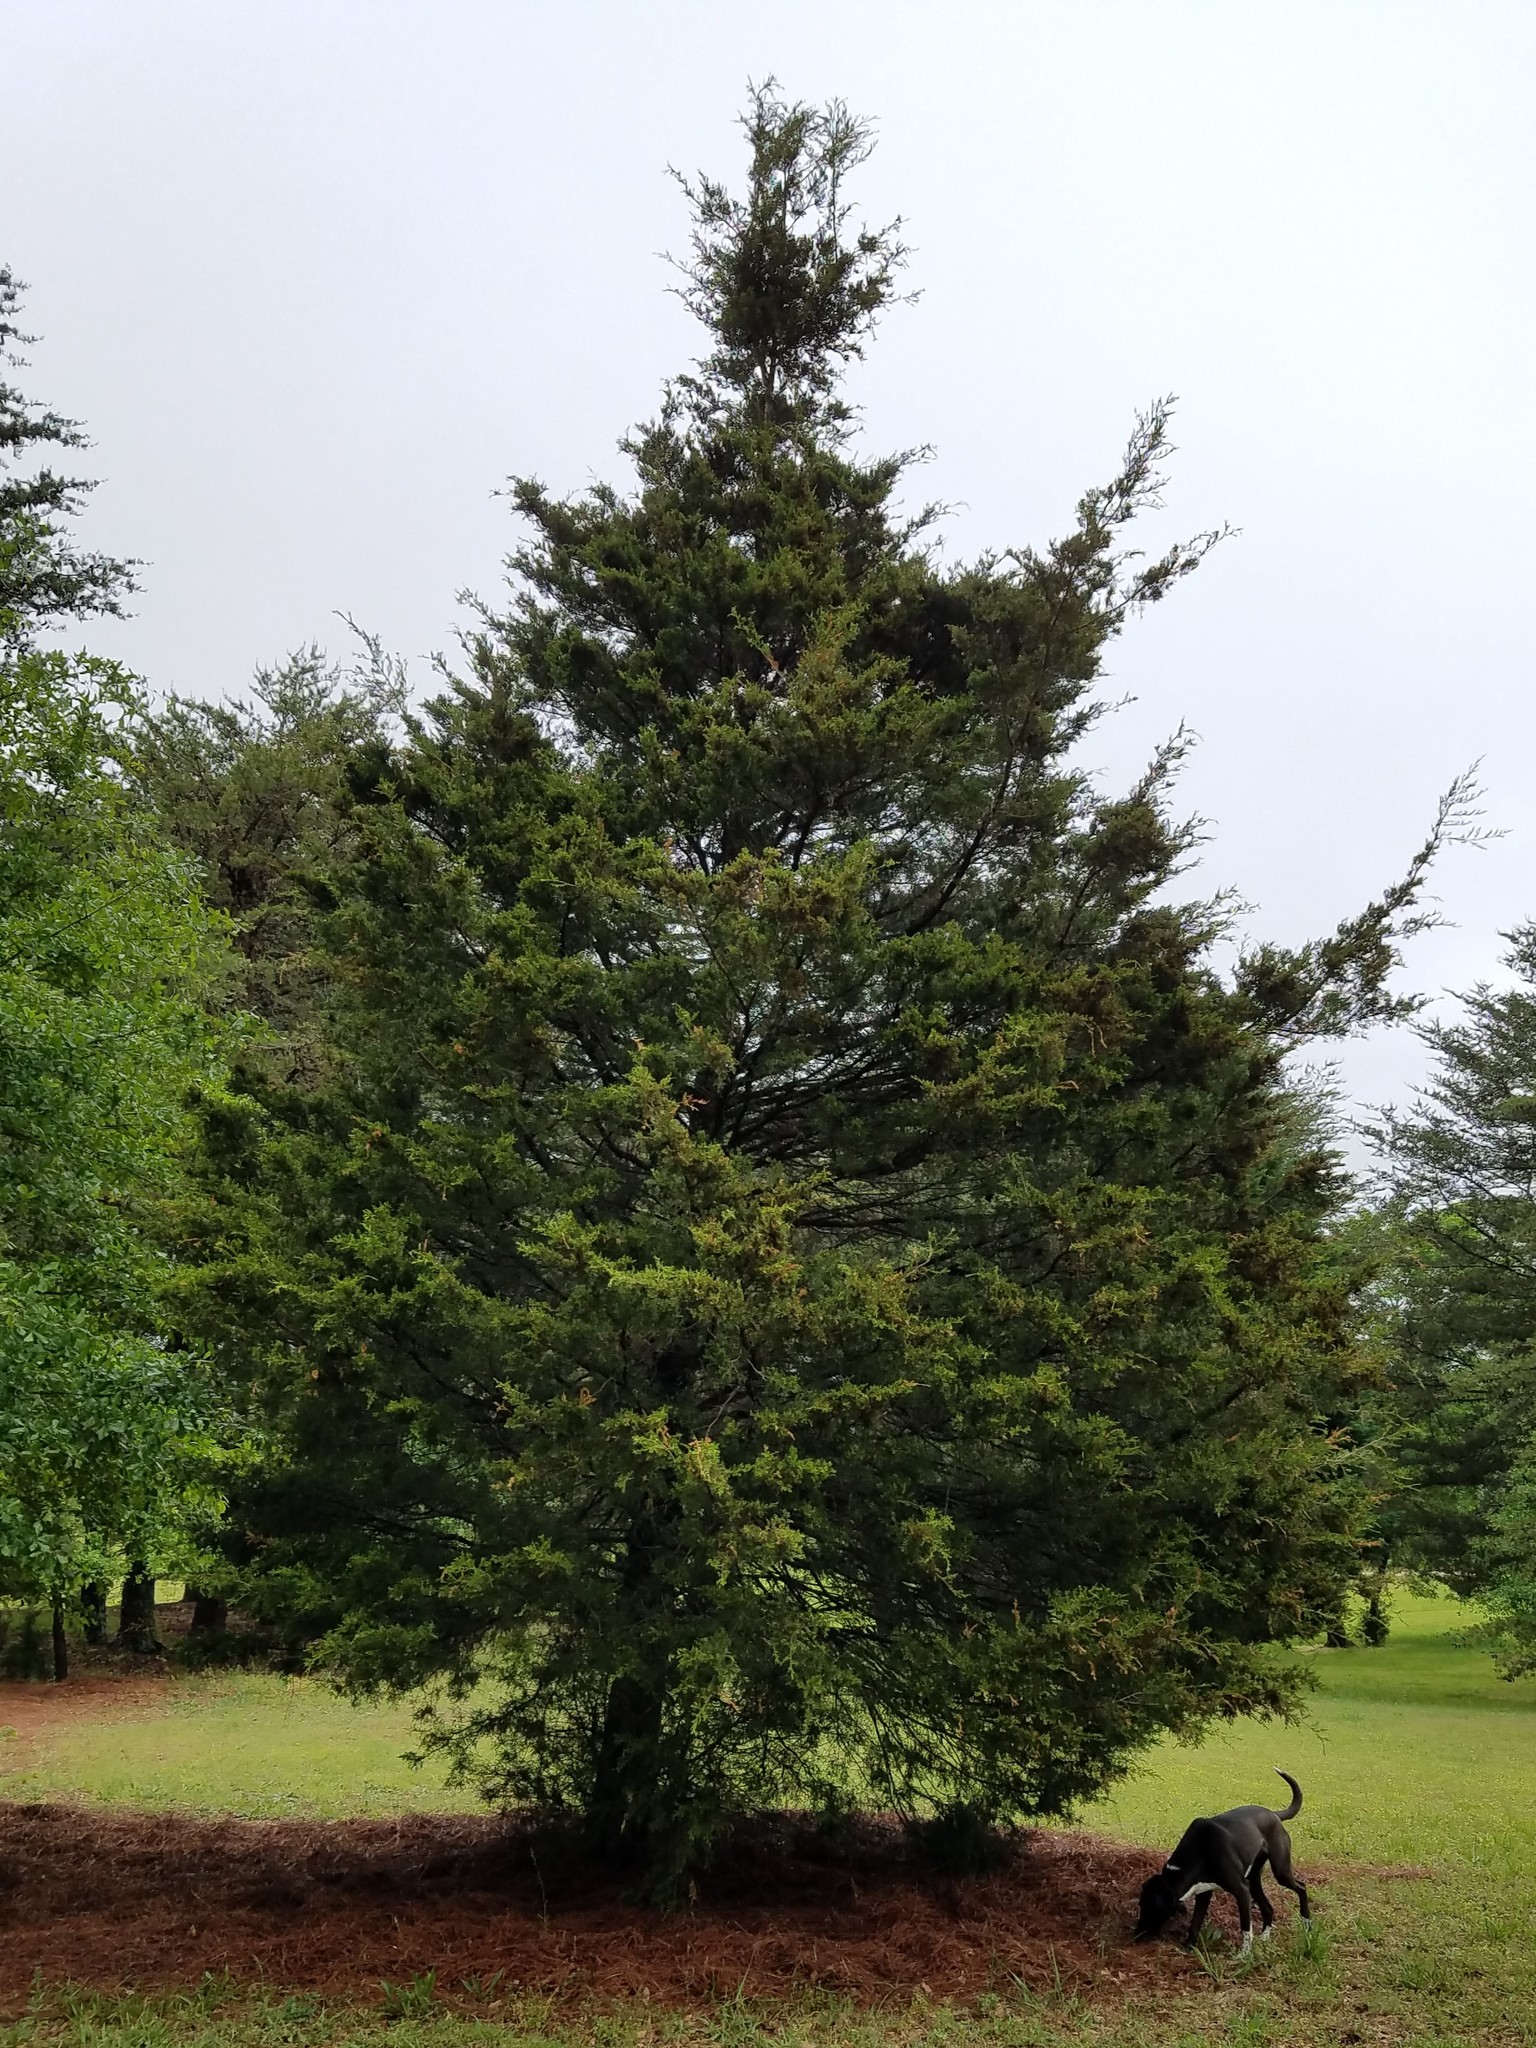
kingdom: Plantae
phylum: Tracheophyta
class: Pinopsida
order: Pinales
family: Cupressaceae
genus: Juniperus
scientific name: Juniperus virginiana
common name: Red juniper
